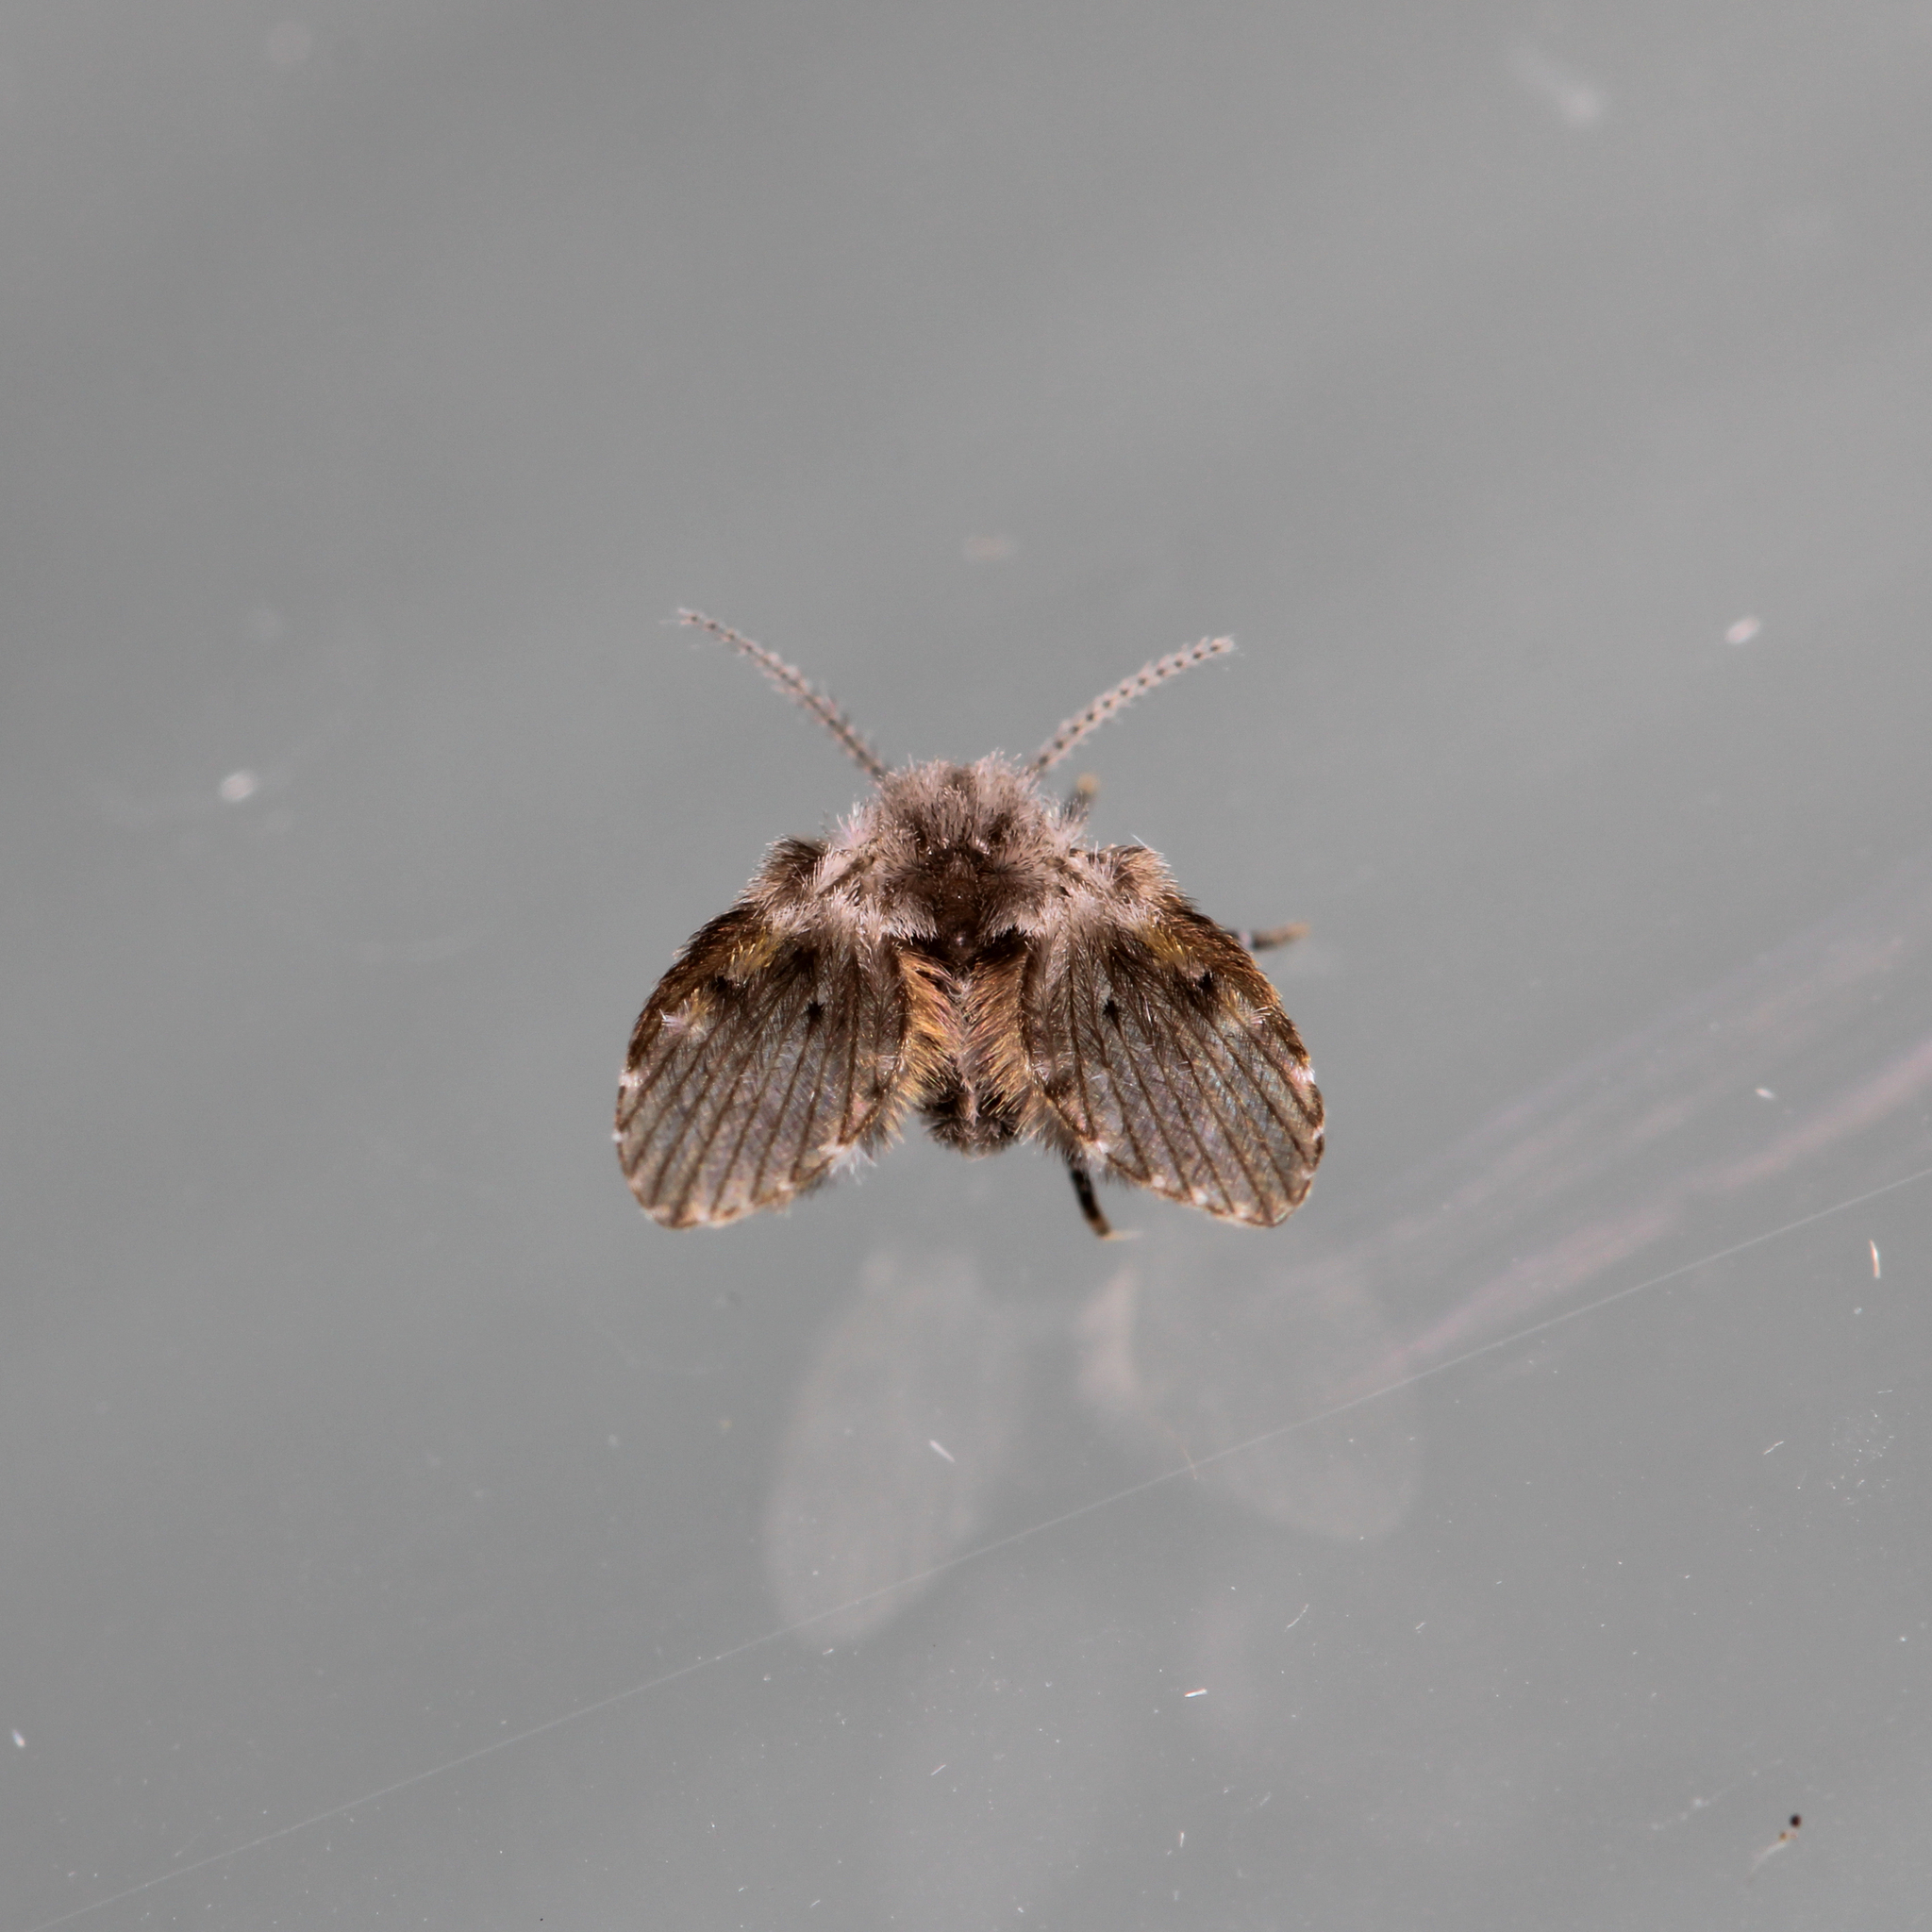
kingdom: Animalia
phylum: Arthropoda
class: Insecta
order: Diptera
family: Psychodidae
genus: Clogmia
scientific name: Clogmia albipunctatus
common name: White-spotted moth fly
